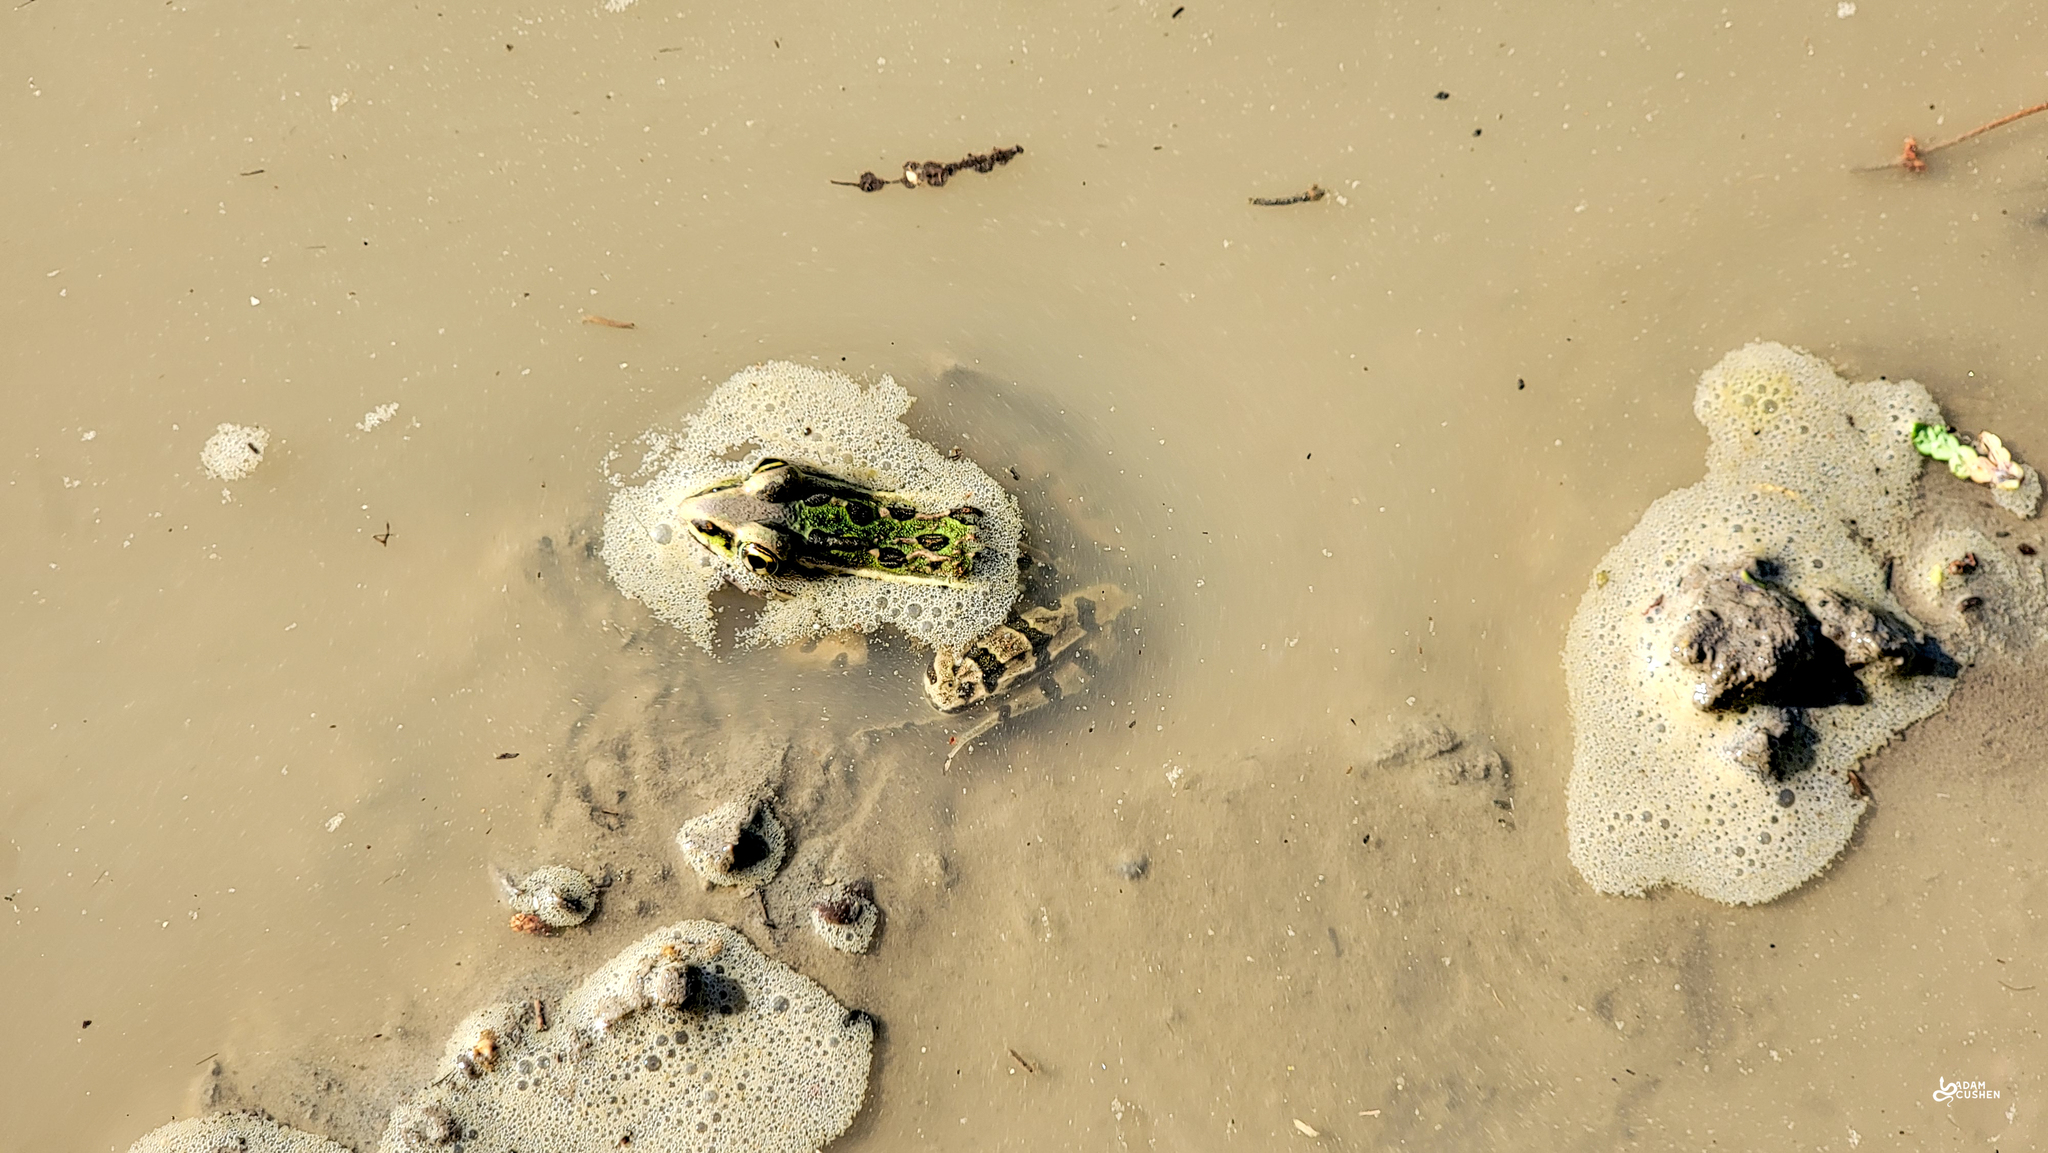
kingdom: Animalia
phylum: Chordata
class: Amphibia
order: Anura
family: Ranidae
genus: Lithobates
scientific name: Lithobates pipiens
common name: Northern leopard frog
